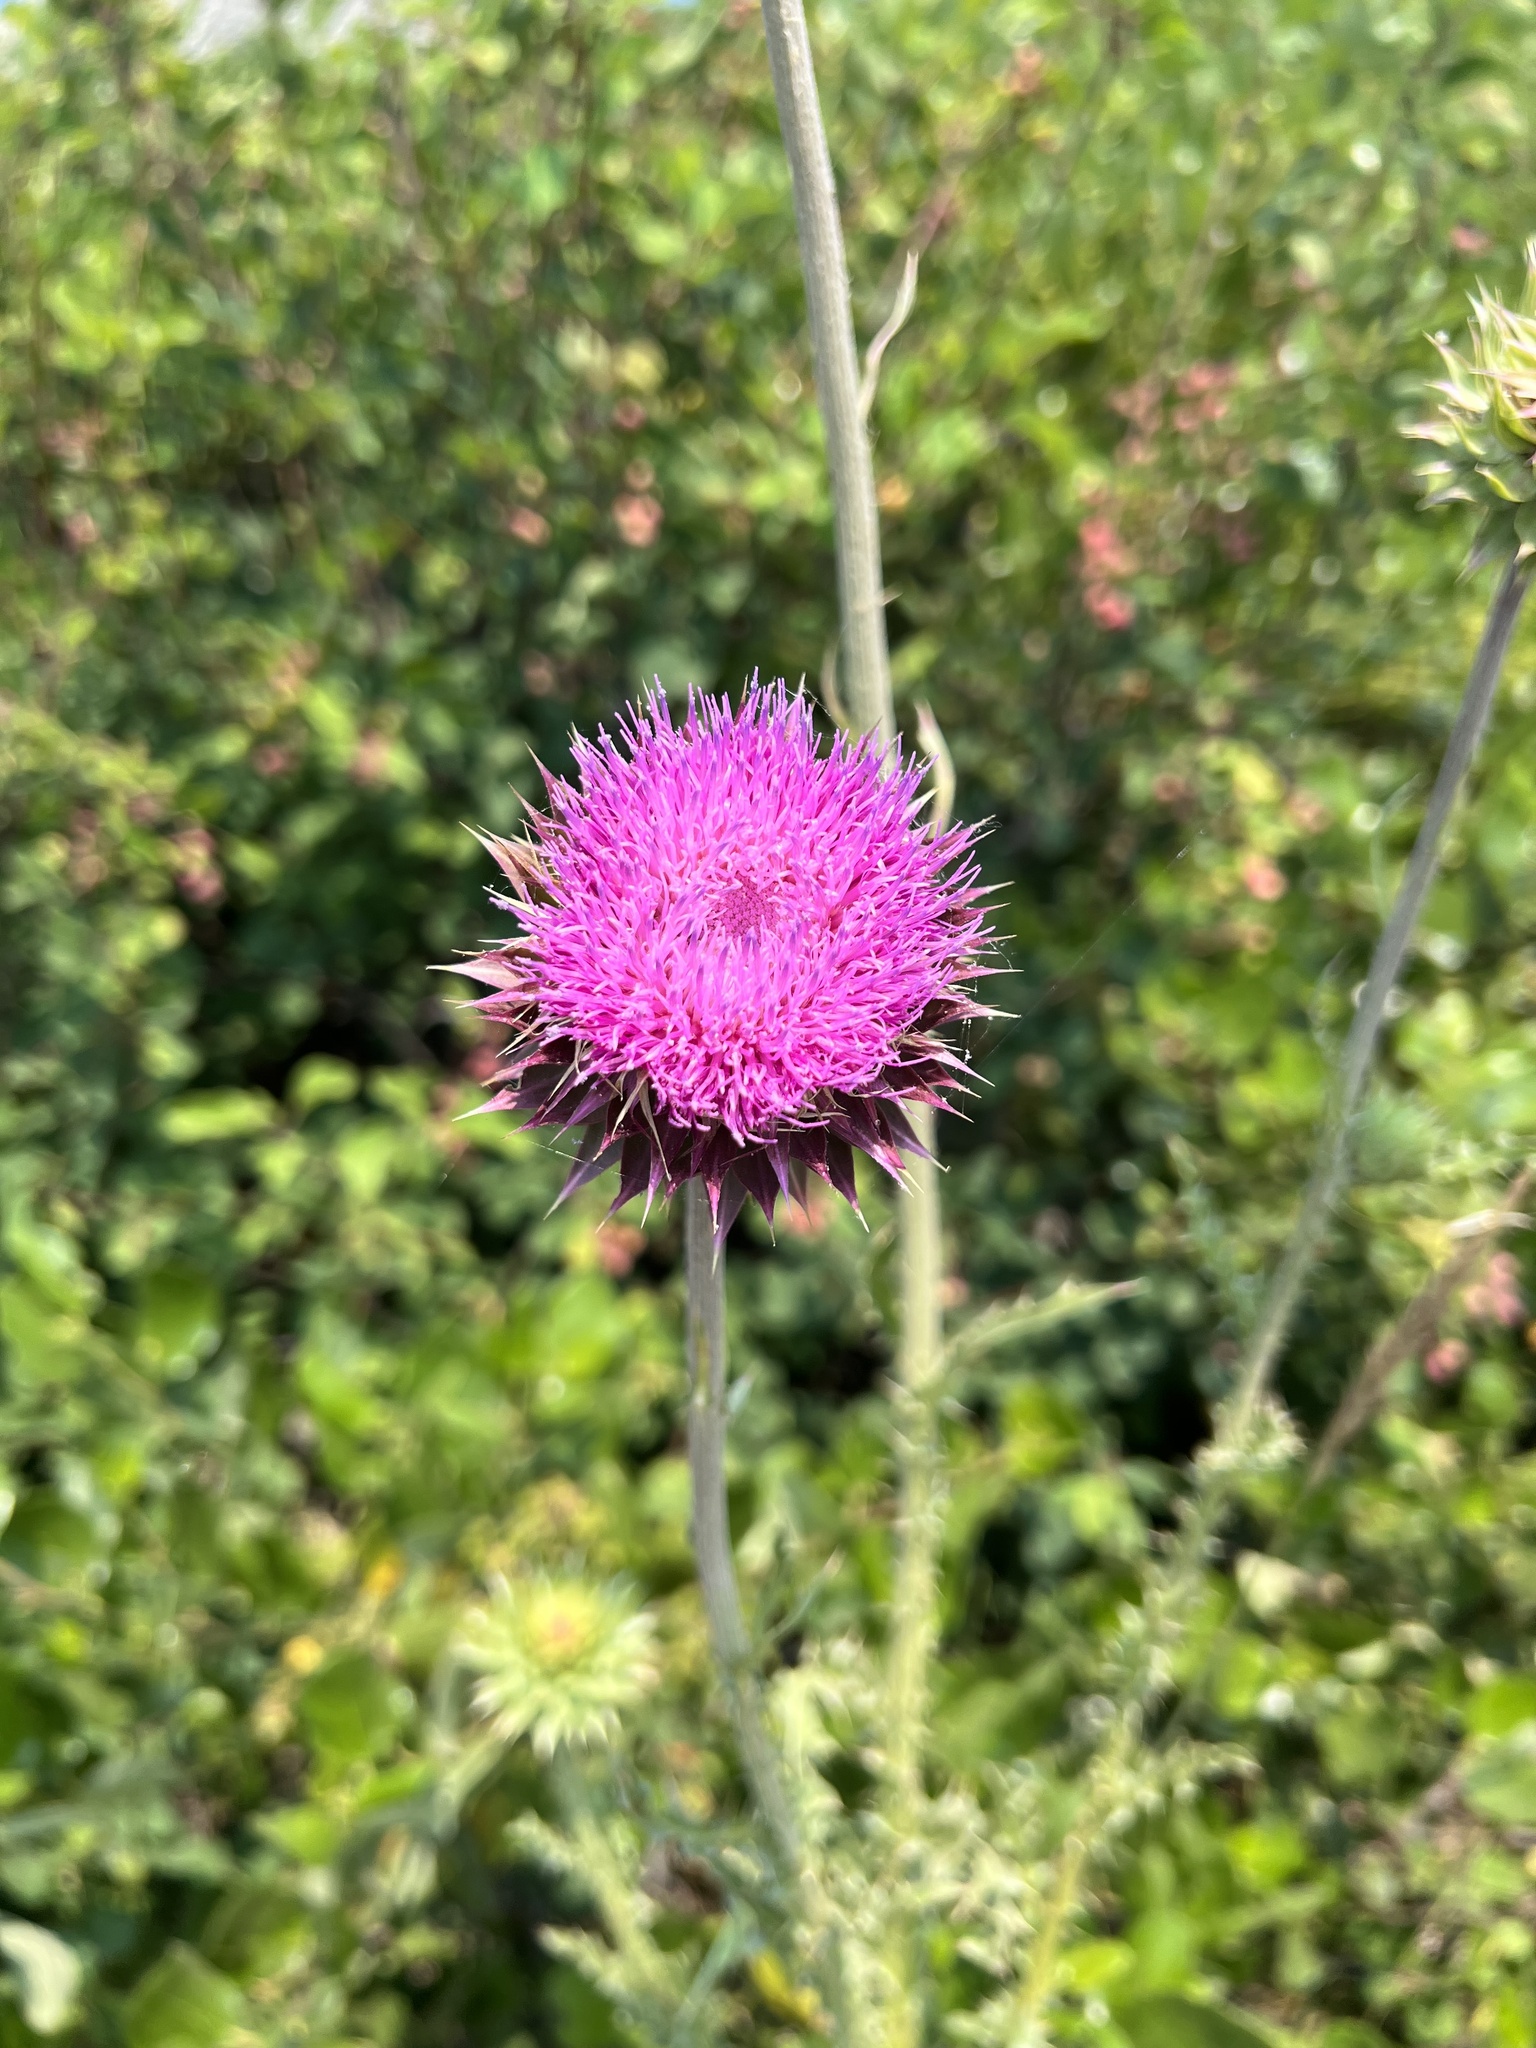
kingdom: Plantae
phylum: Tracheophyta
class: Magnoliopsida
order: Asterales
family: Asteraceae
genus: Carduus
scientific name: Carduus nutans
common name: Musk thistle
